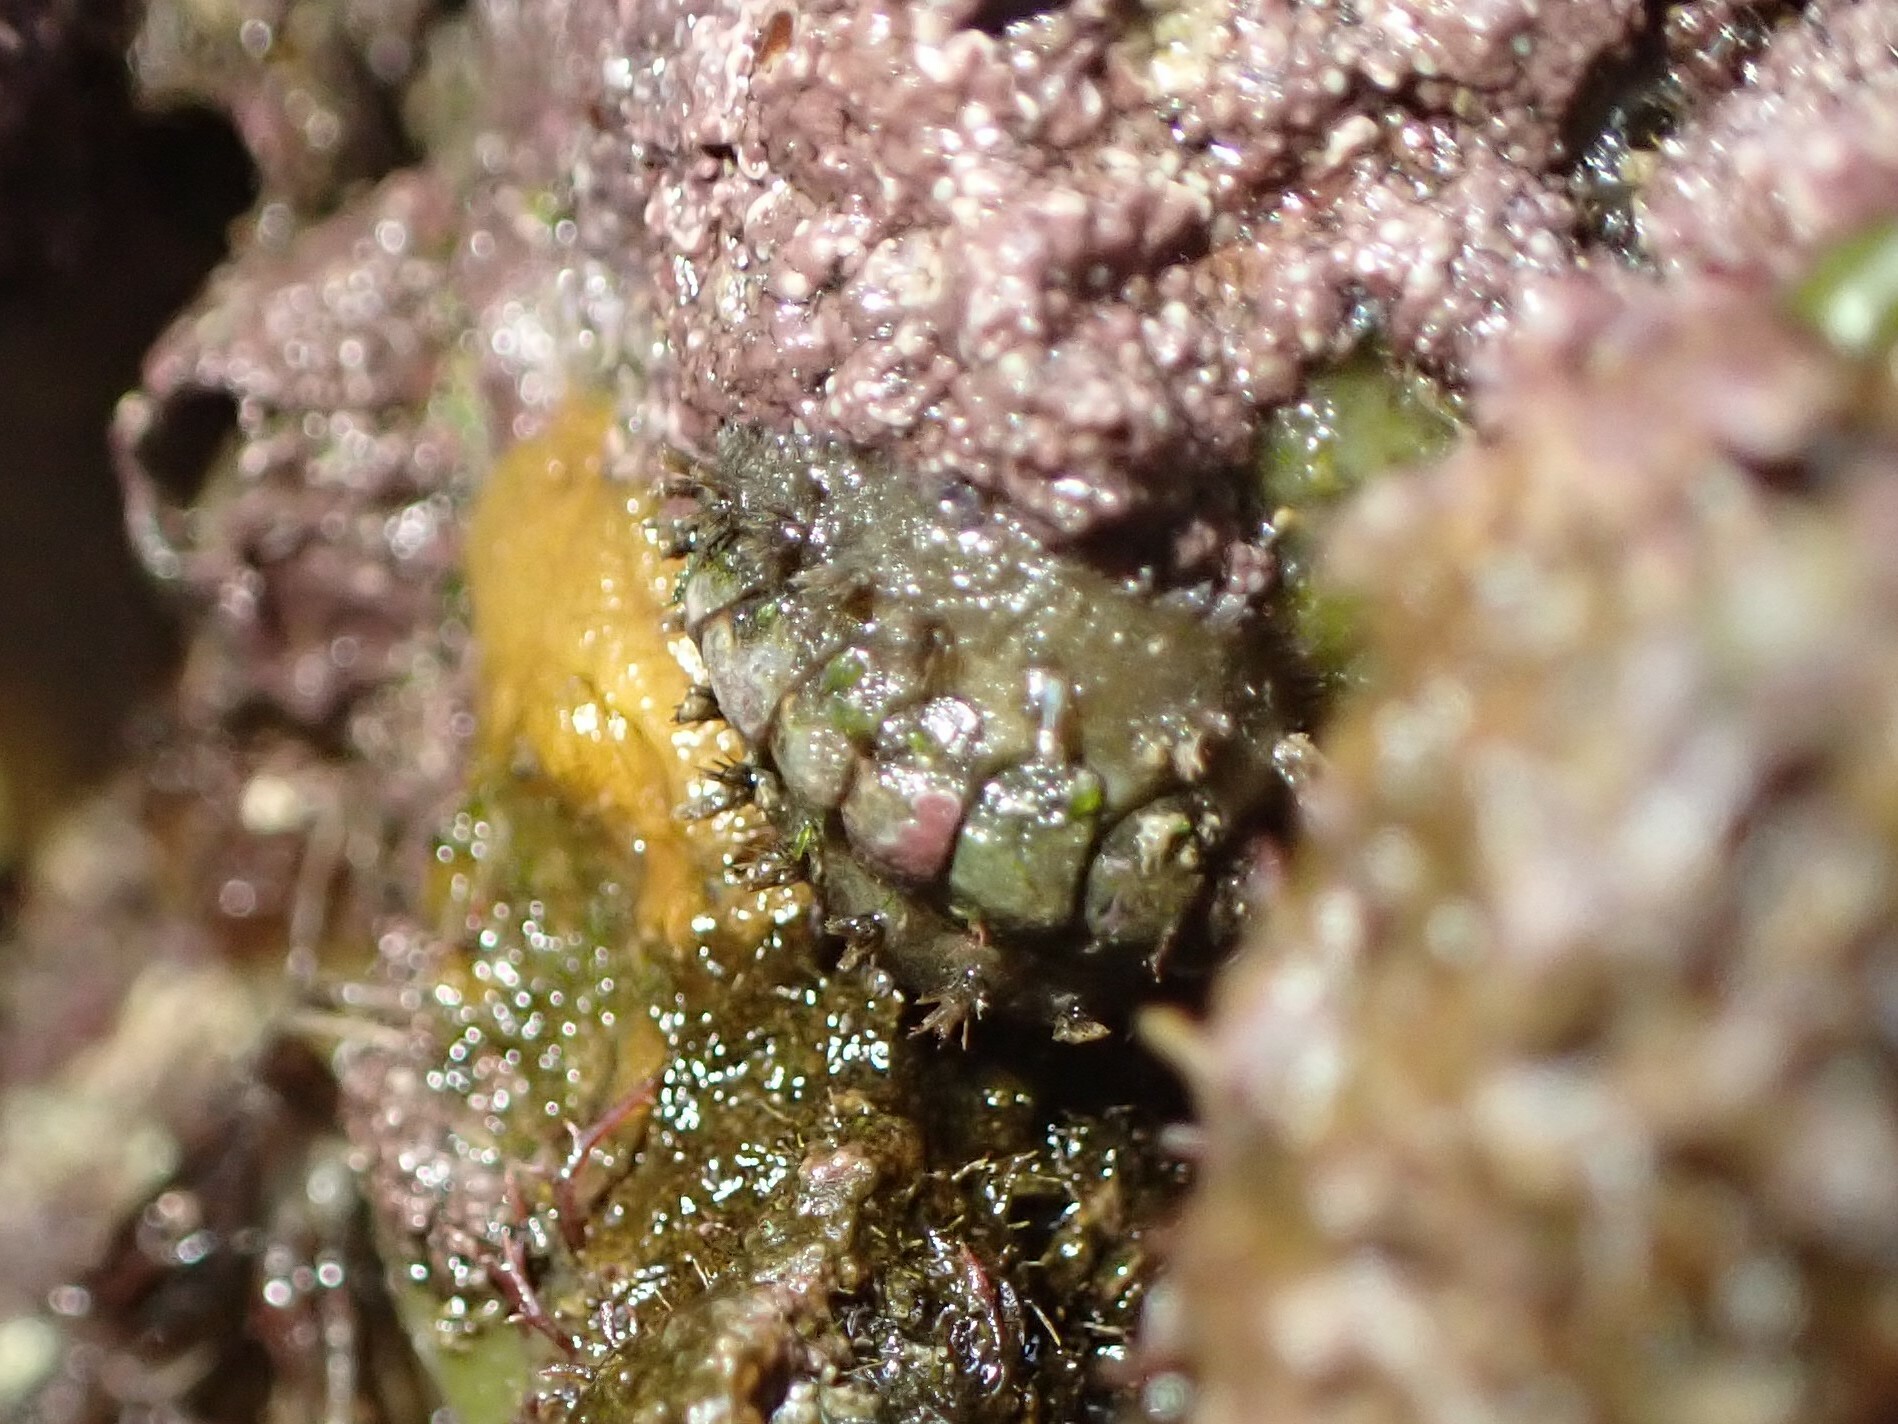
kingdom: Animalia
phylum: Mollusca
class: Polyplacophora
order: Chitonida
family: Acanthochitonidae
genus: Acanthochitona
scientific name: Acanthochitona crinita
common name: Bristly mail chiton
